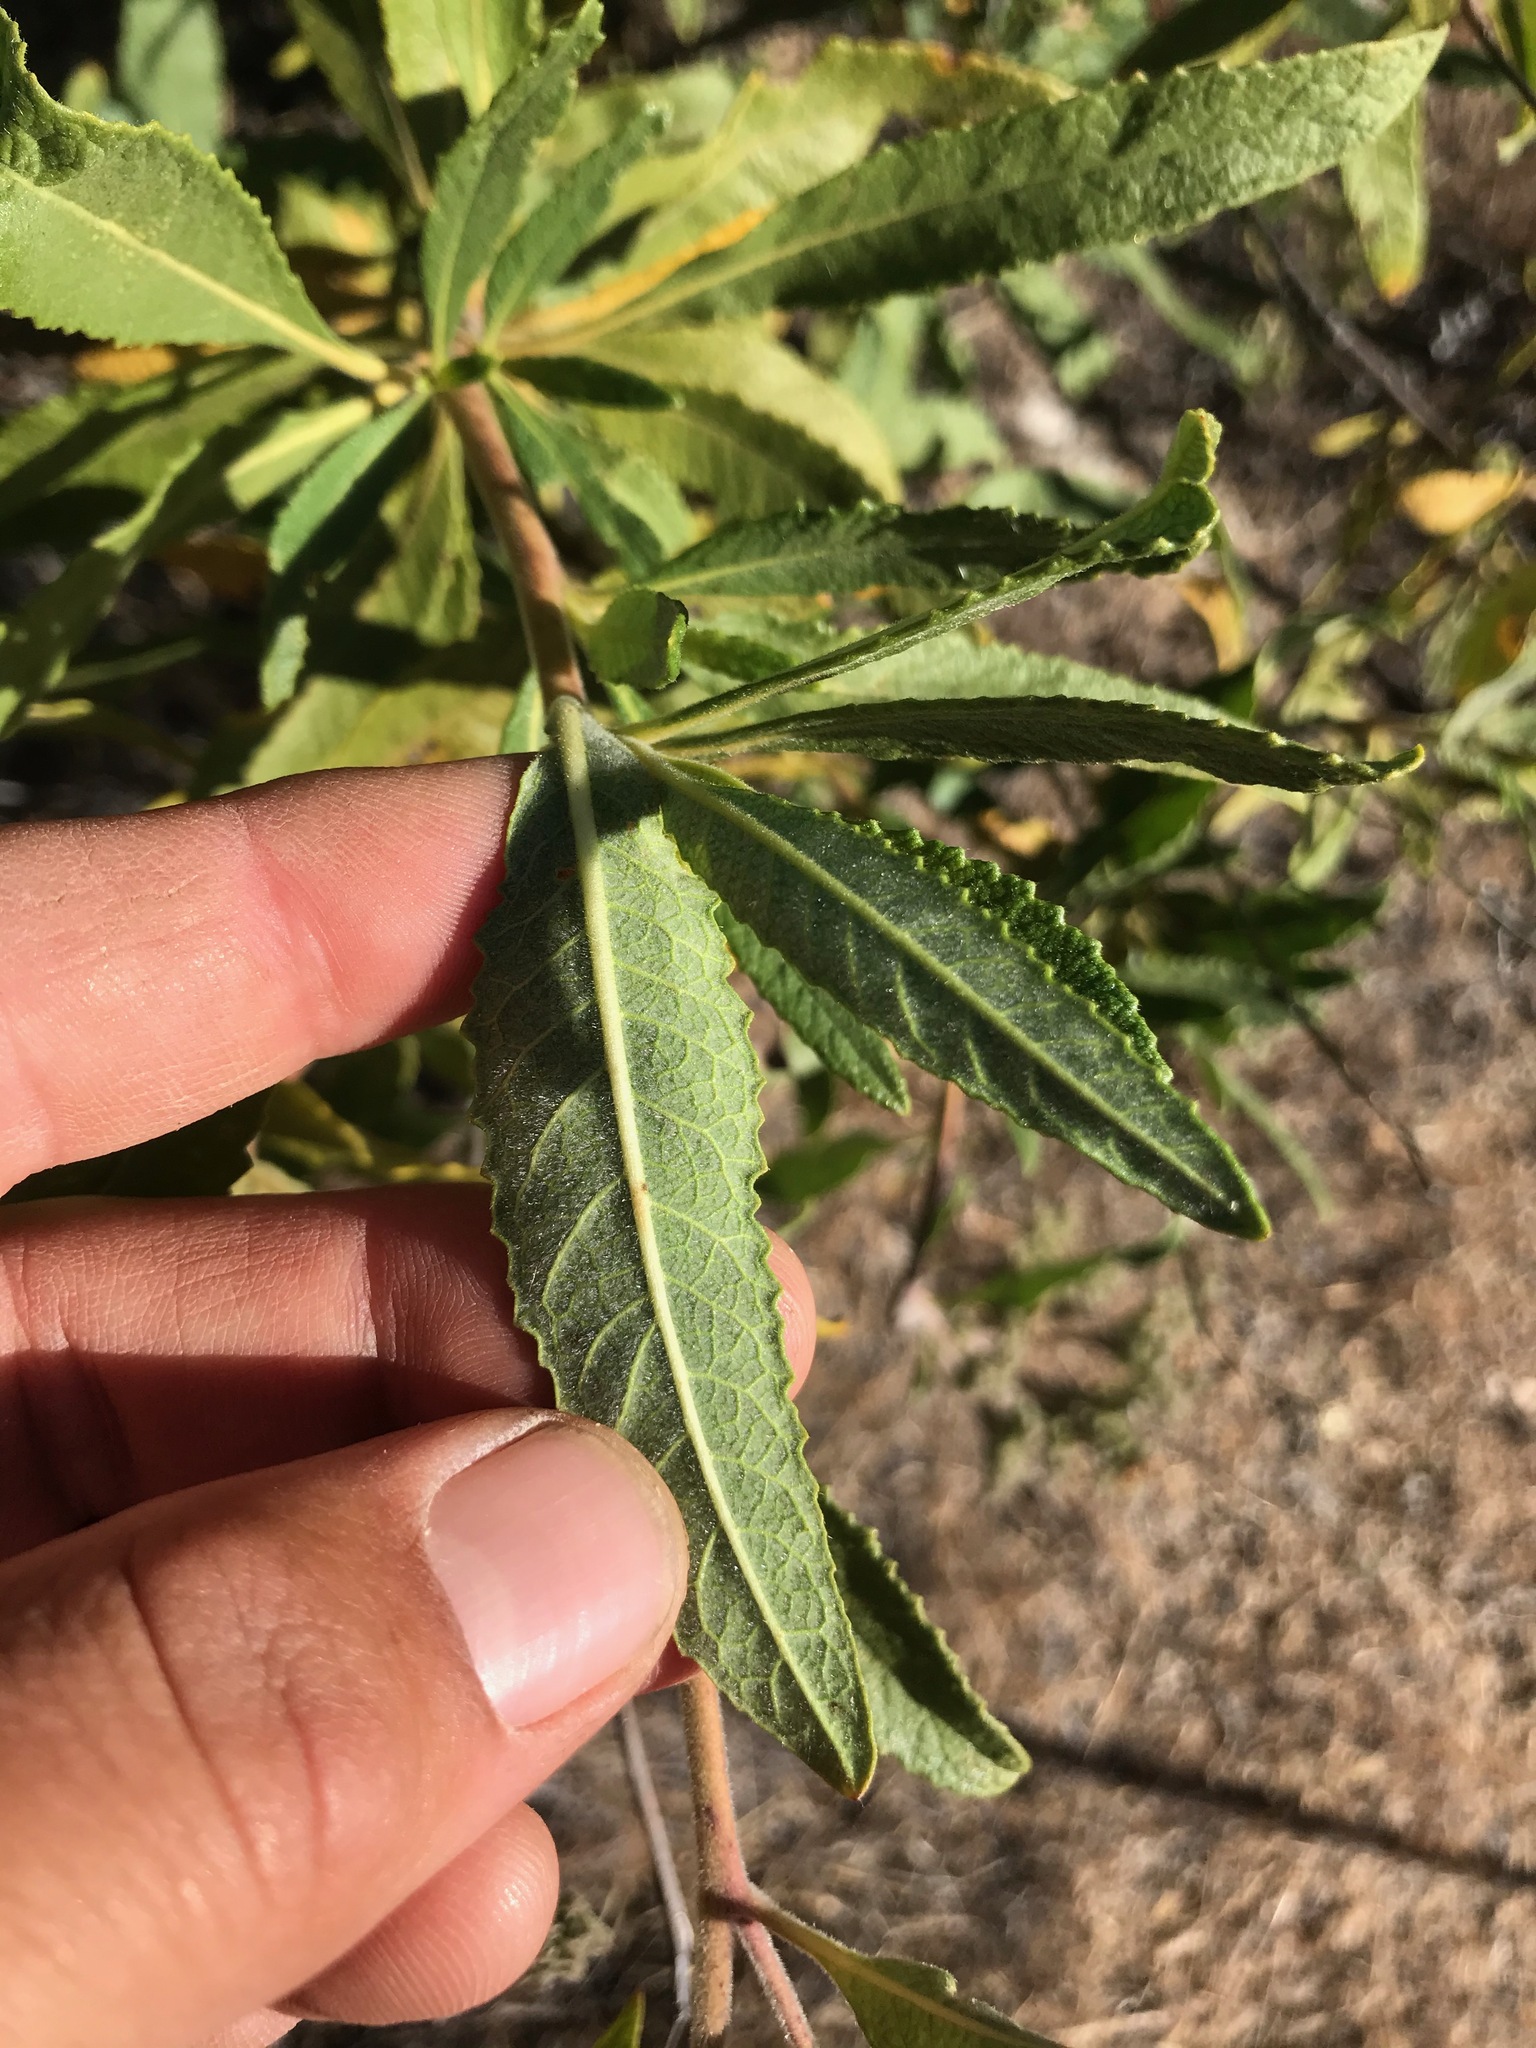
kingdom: Plantae
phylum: Tracheophyta
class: Magnoliopsida
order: Boraginales
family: Namaceae
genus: Eriodictyon
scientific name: Eriodictyon crassifolium
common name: Thick-leaf yerba-santa
